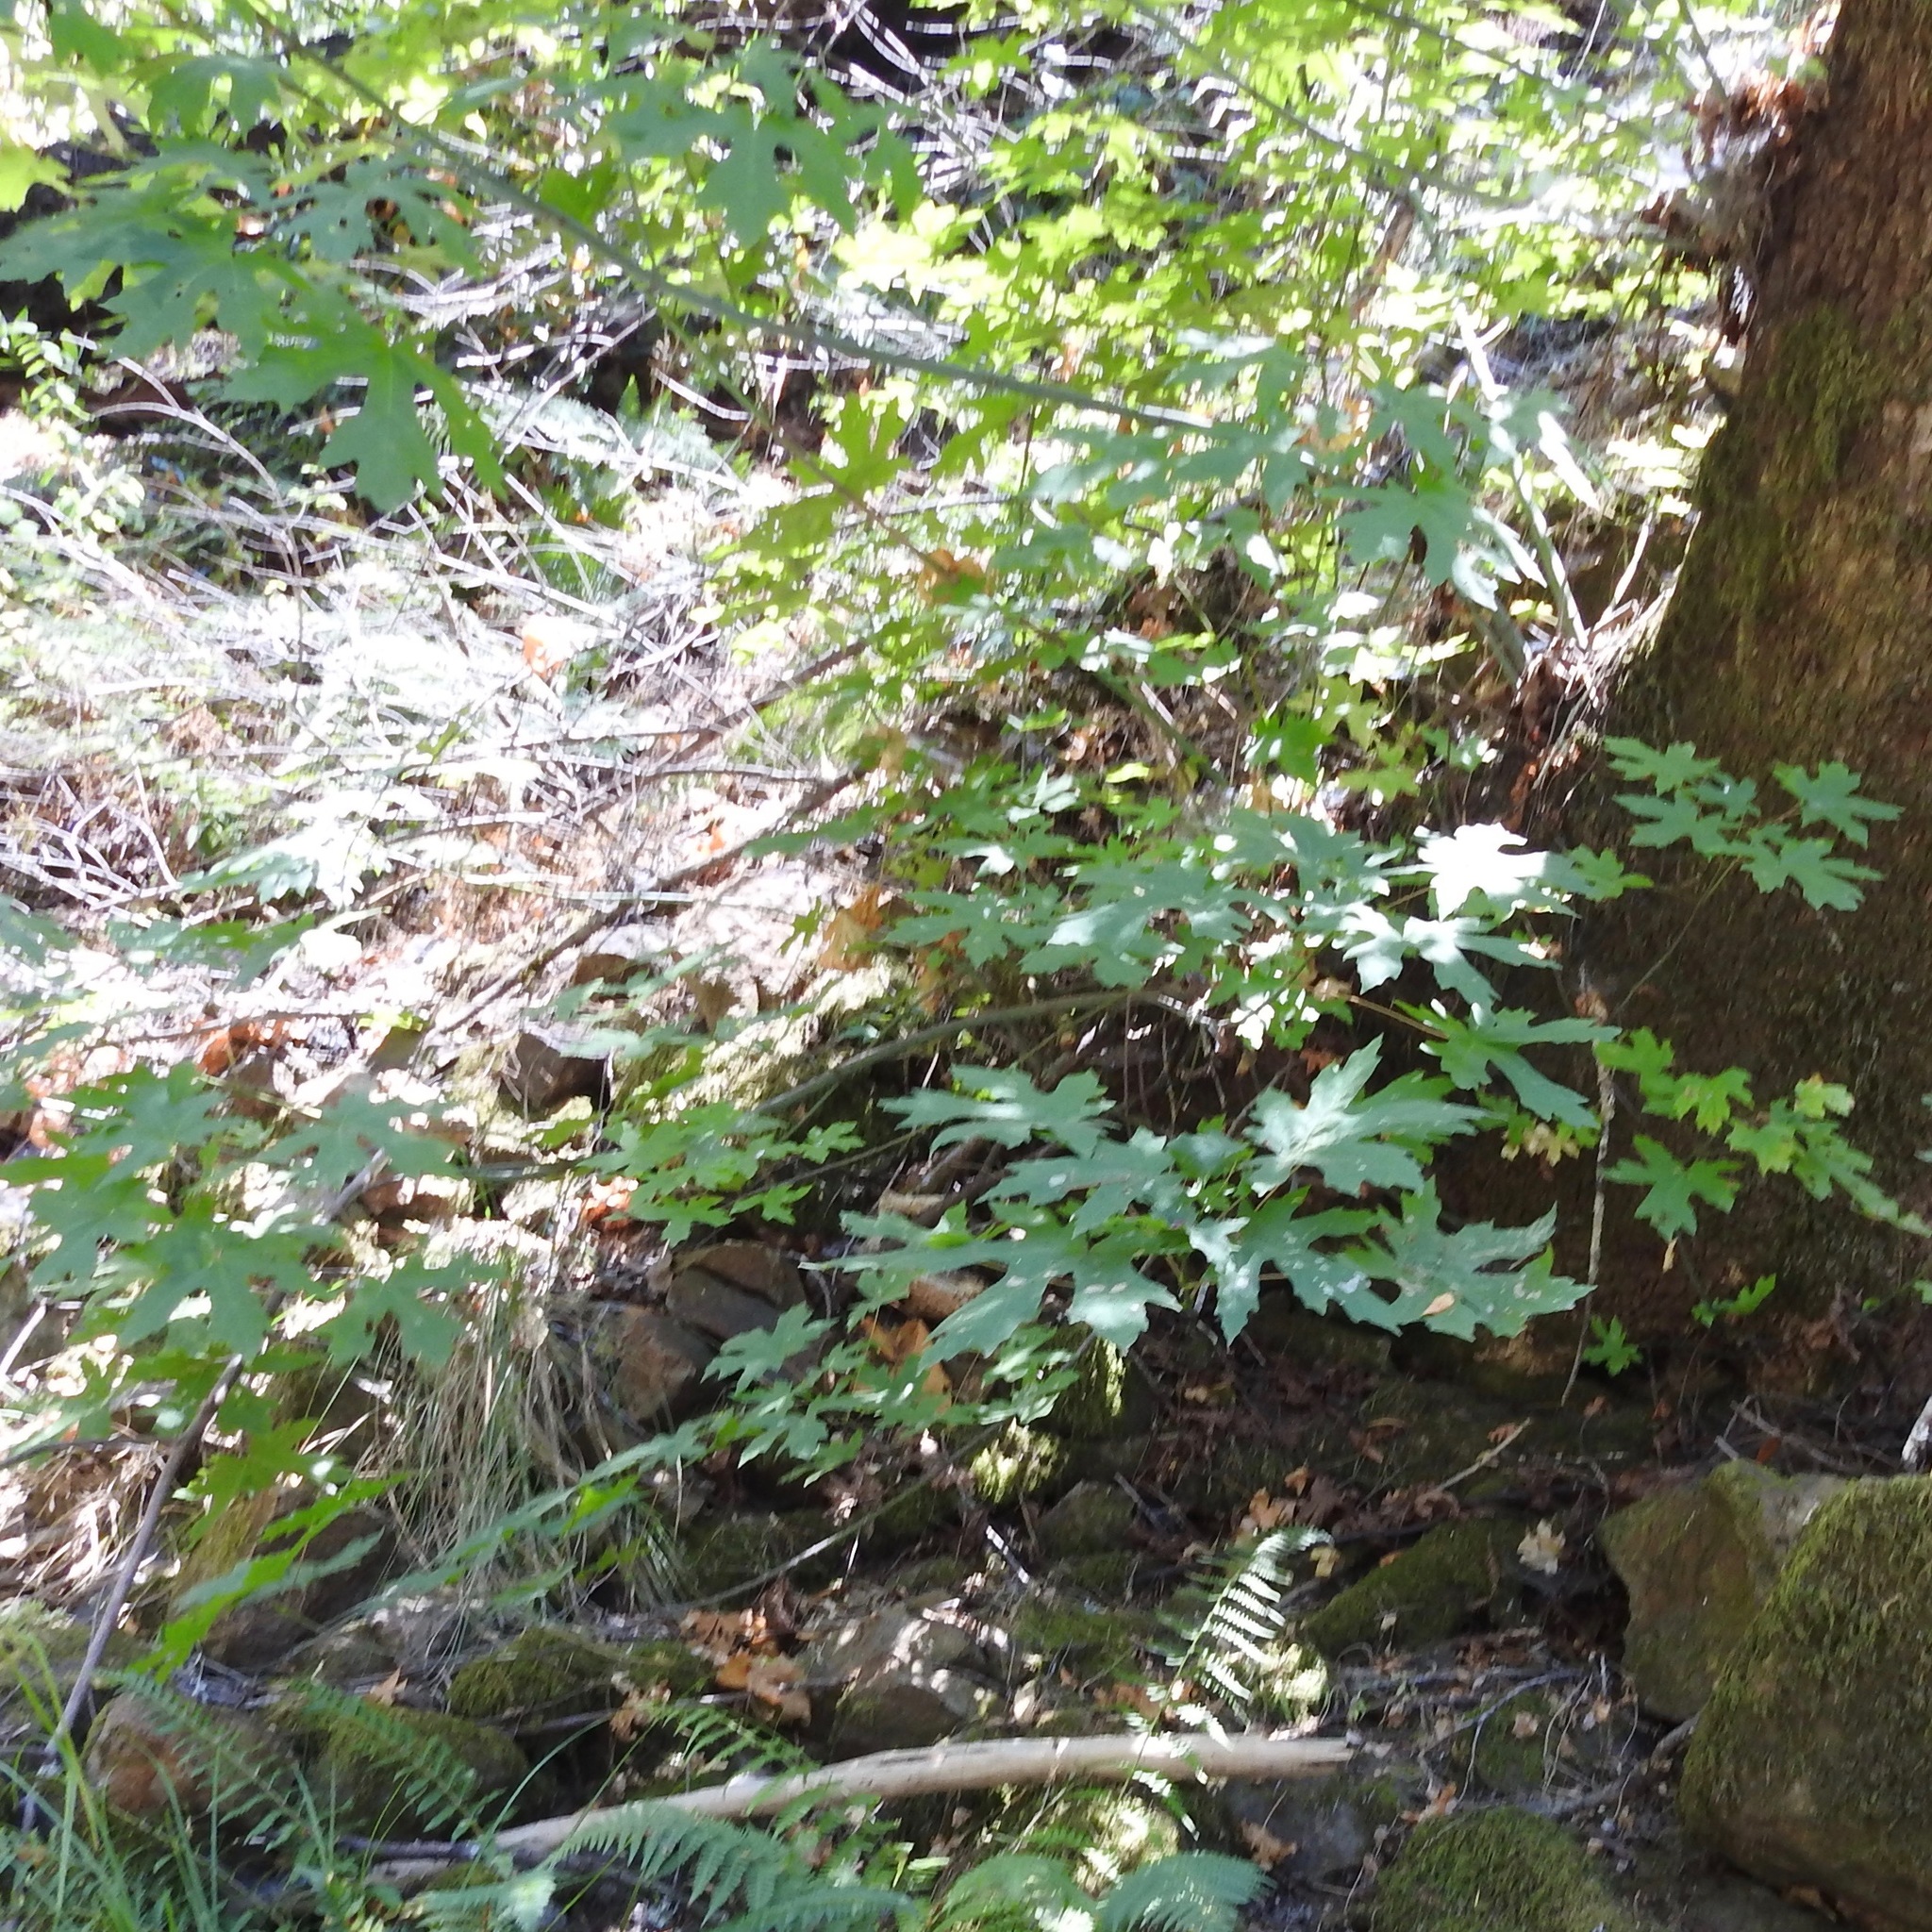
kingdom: Plantae
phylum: Tracheophyta
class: Magnoliopsida
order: Sapindales
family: Sapindaceae
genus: Acer
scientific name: Acer macrophyllum
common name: Oregon maple
